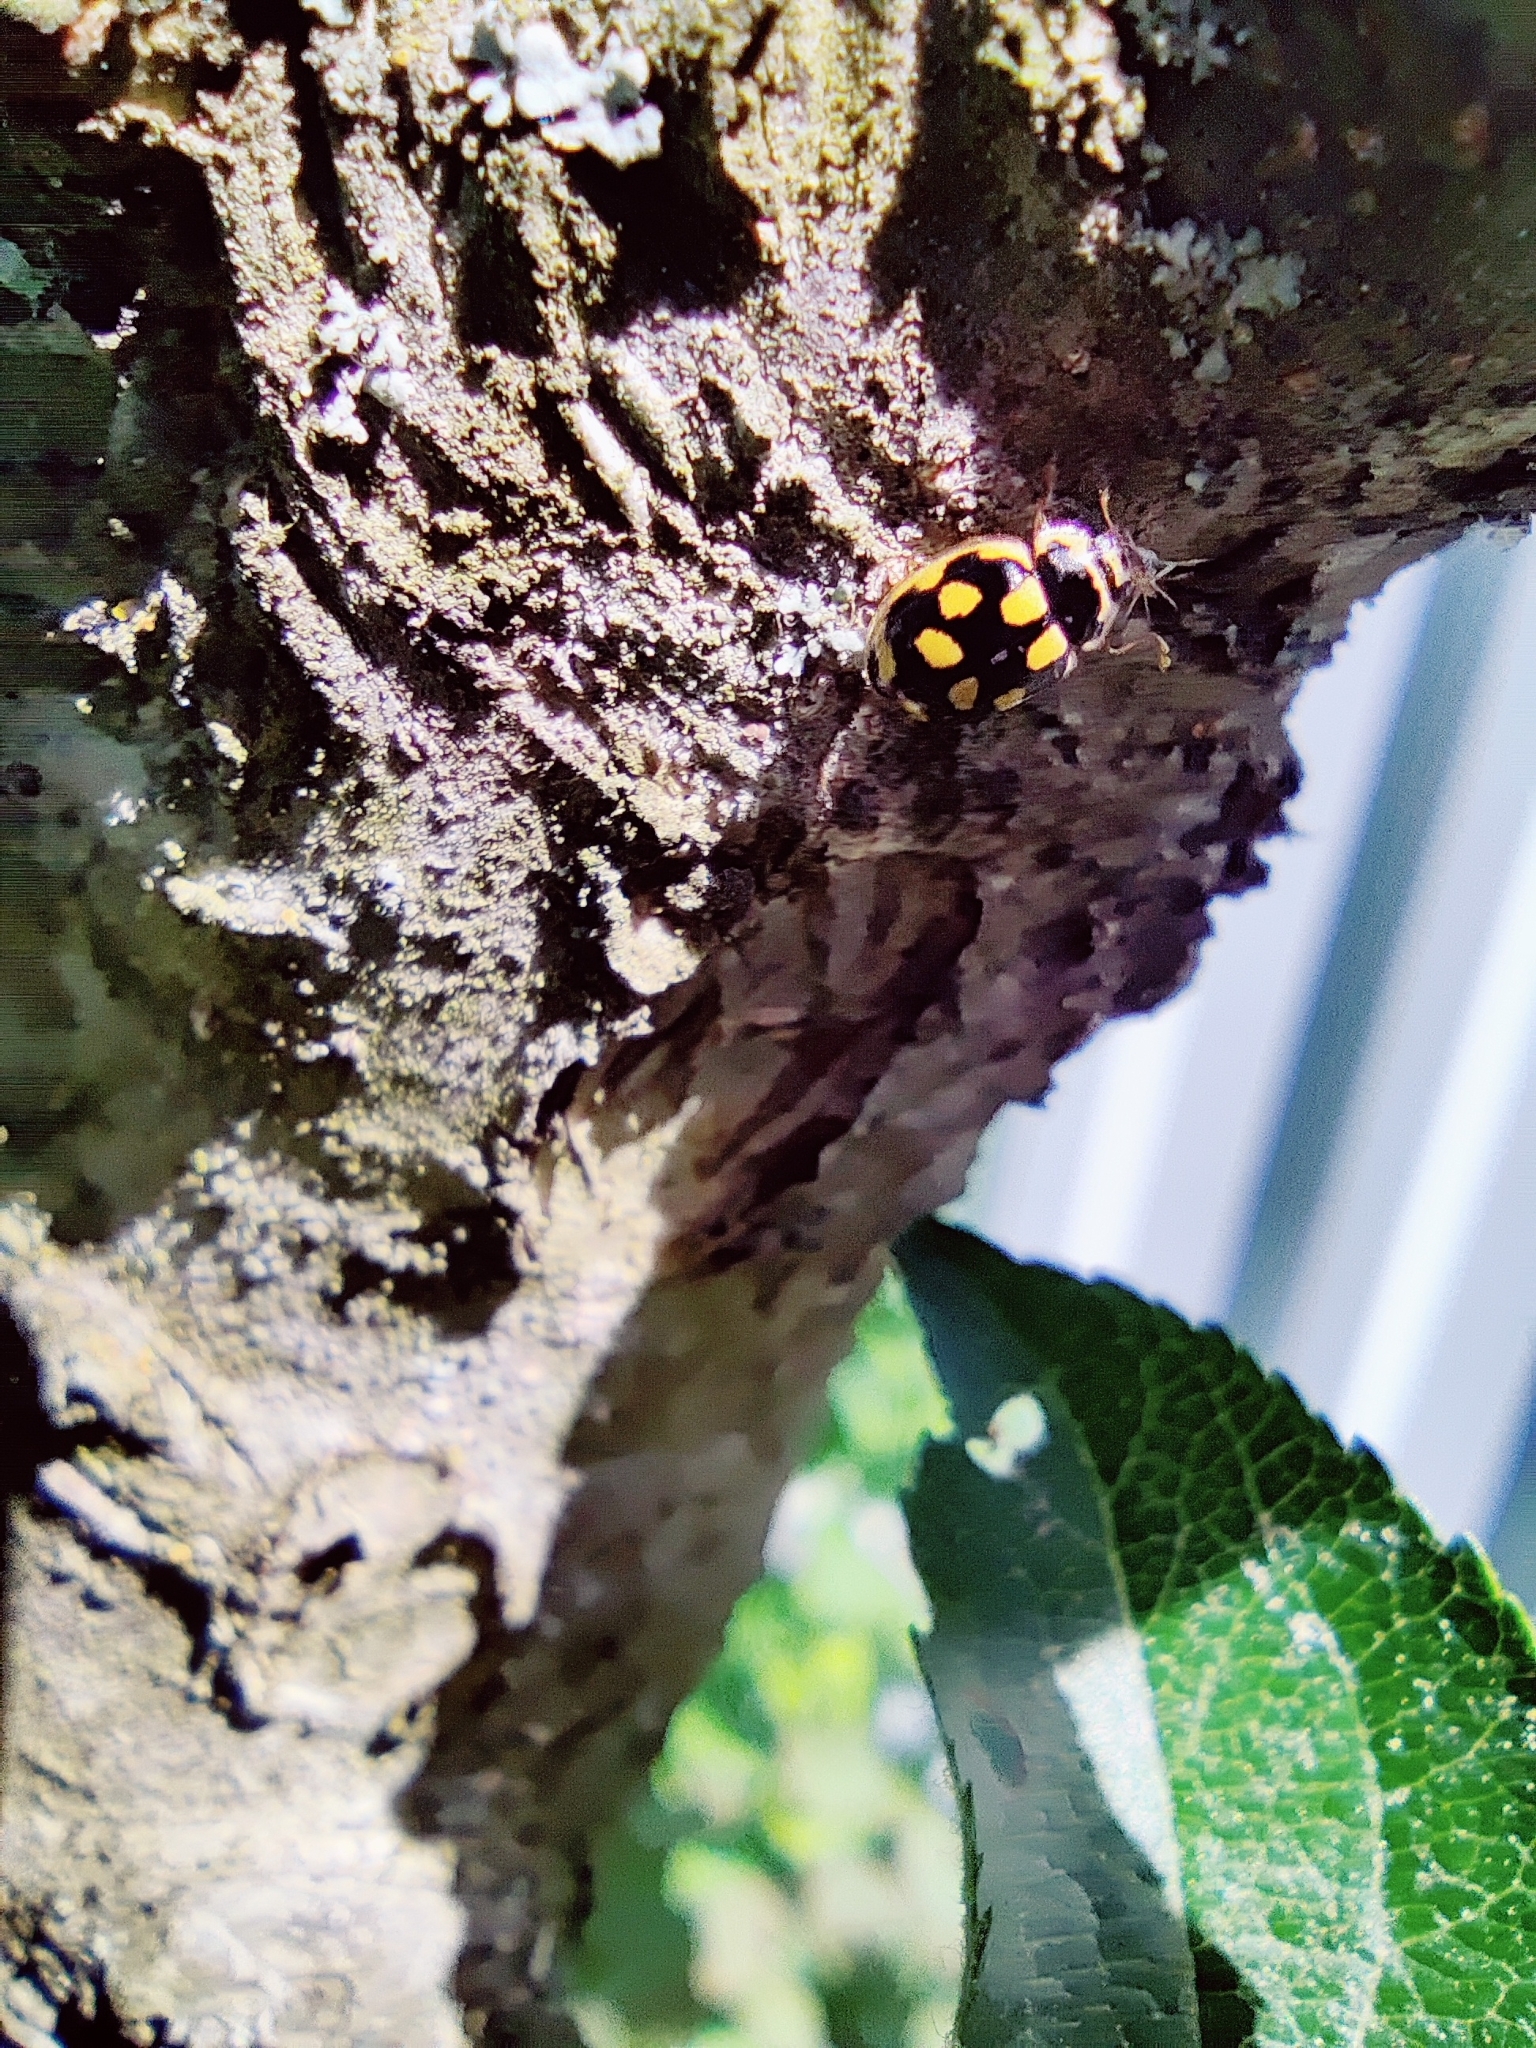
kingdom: Animalia
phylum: Arthropoda
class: Insecta
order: Coleoptera
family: Coccinellidae
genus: Propylaea
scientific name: Propylaea quatuordecimpunctata
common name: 14-spotted ladybird beetle
